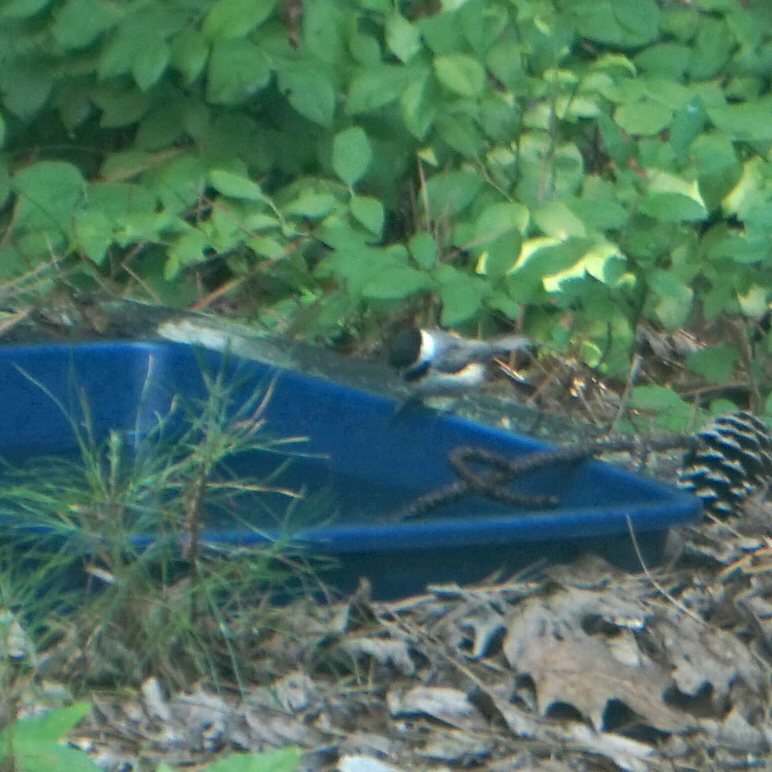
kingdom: Animalia
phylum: Chordata
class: Aves
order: Passeriformes
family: Paridae
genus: Poecile
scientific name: Poecile carolinensis
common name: Carolina chickadee
